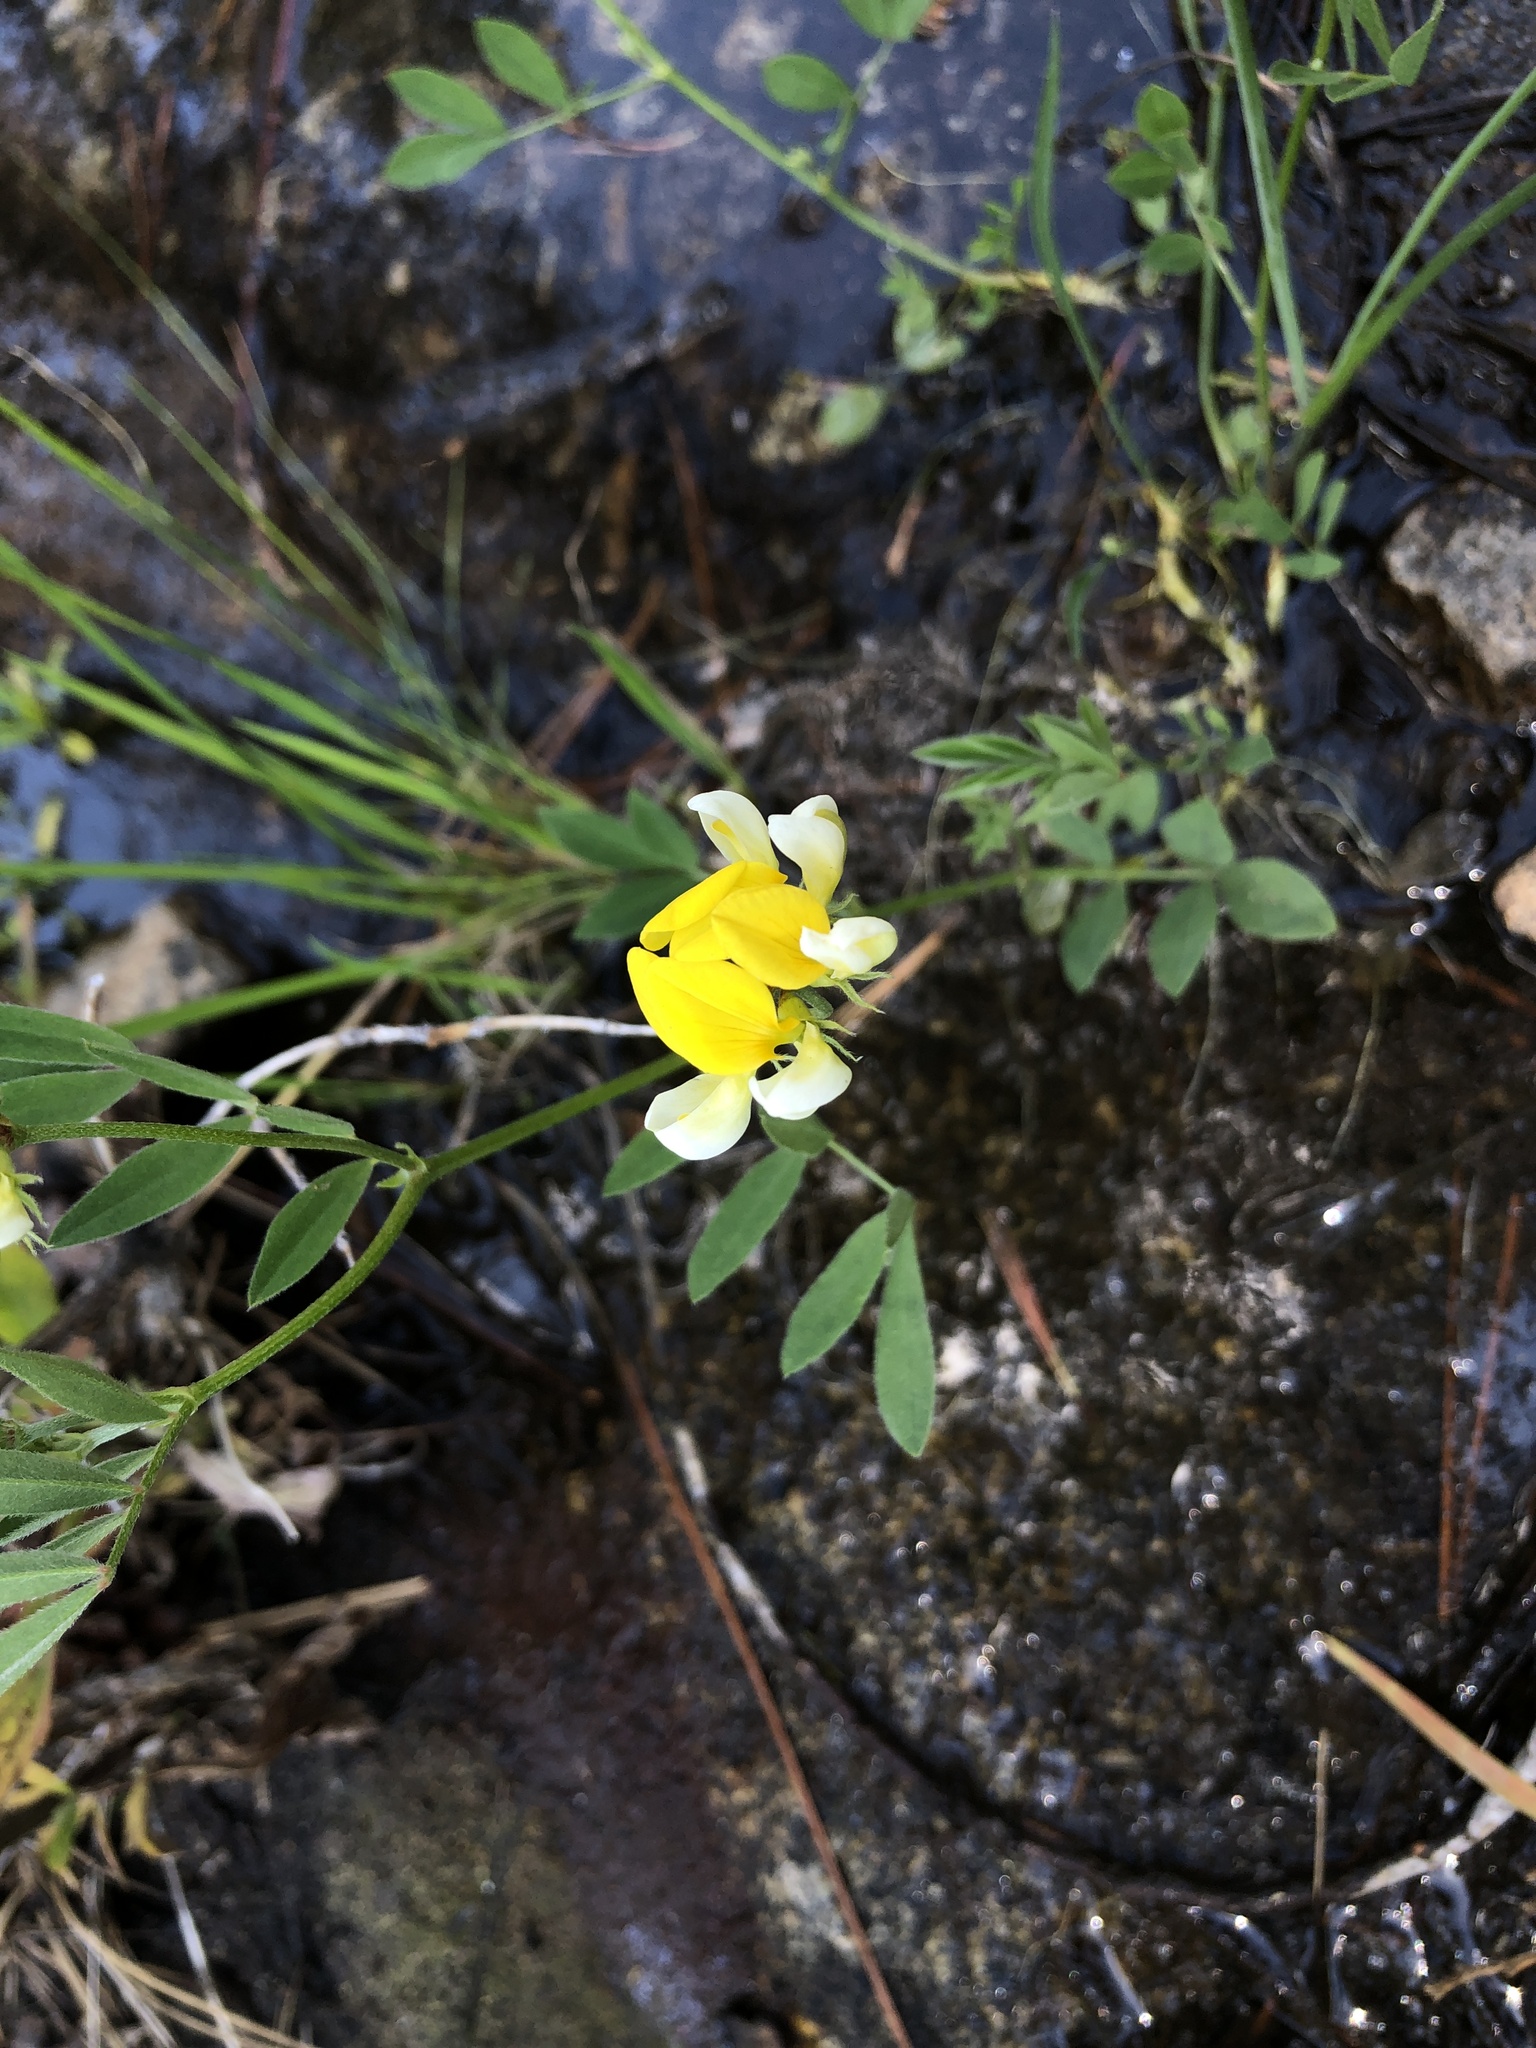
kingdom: Plantae
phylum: Tracheophyta
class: Magnoliopsida
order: Fabales
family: Fabaceae
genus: Hosackia
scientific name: Hosackia oblongifolia
